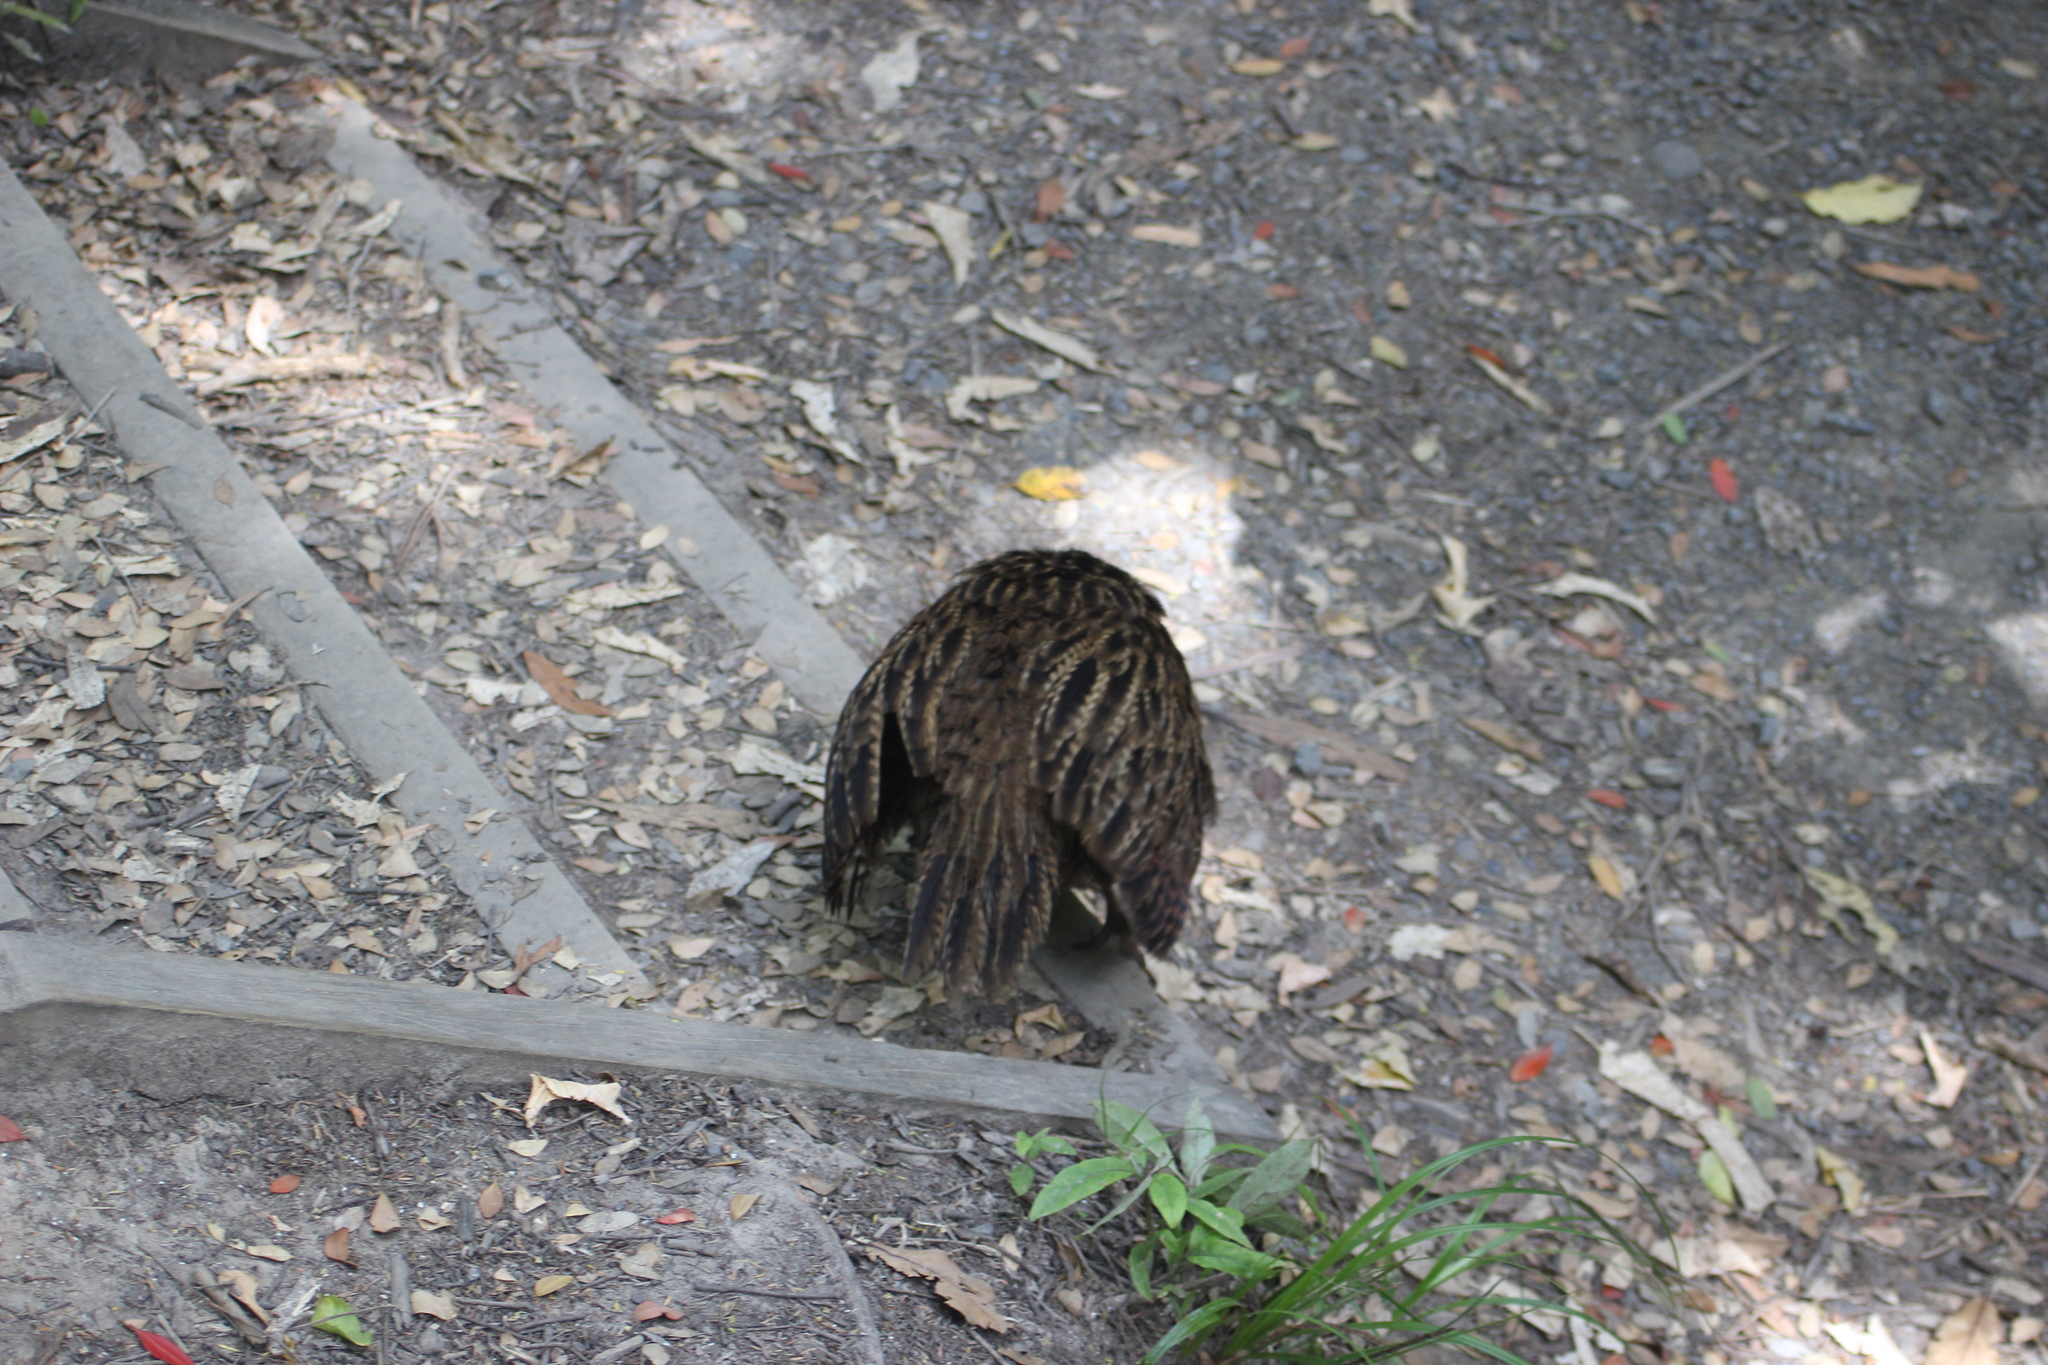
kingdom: Animalia
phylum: Chordata
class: Aves
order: Gruiformes
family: Rallidae
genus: Gallirallus
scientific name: Gallirallus
